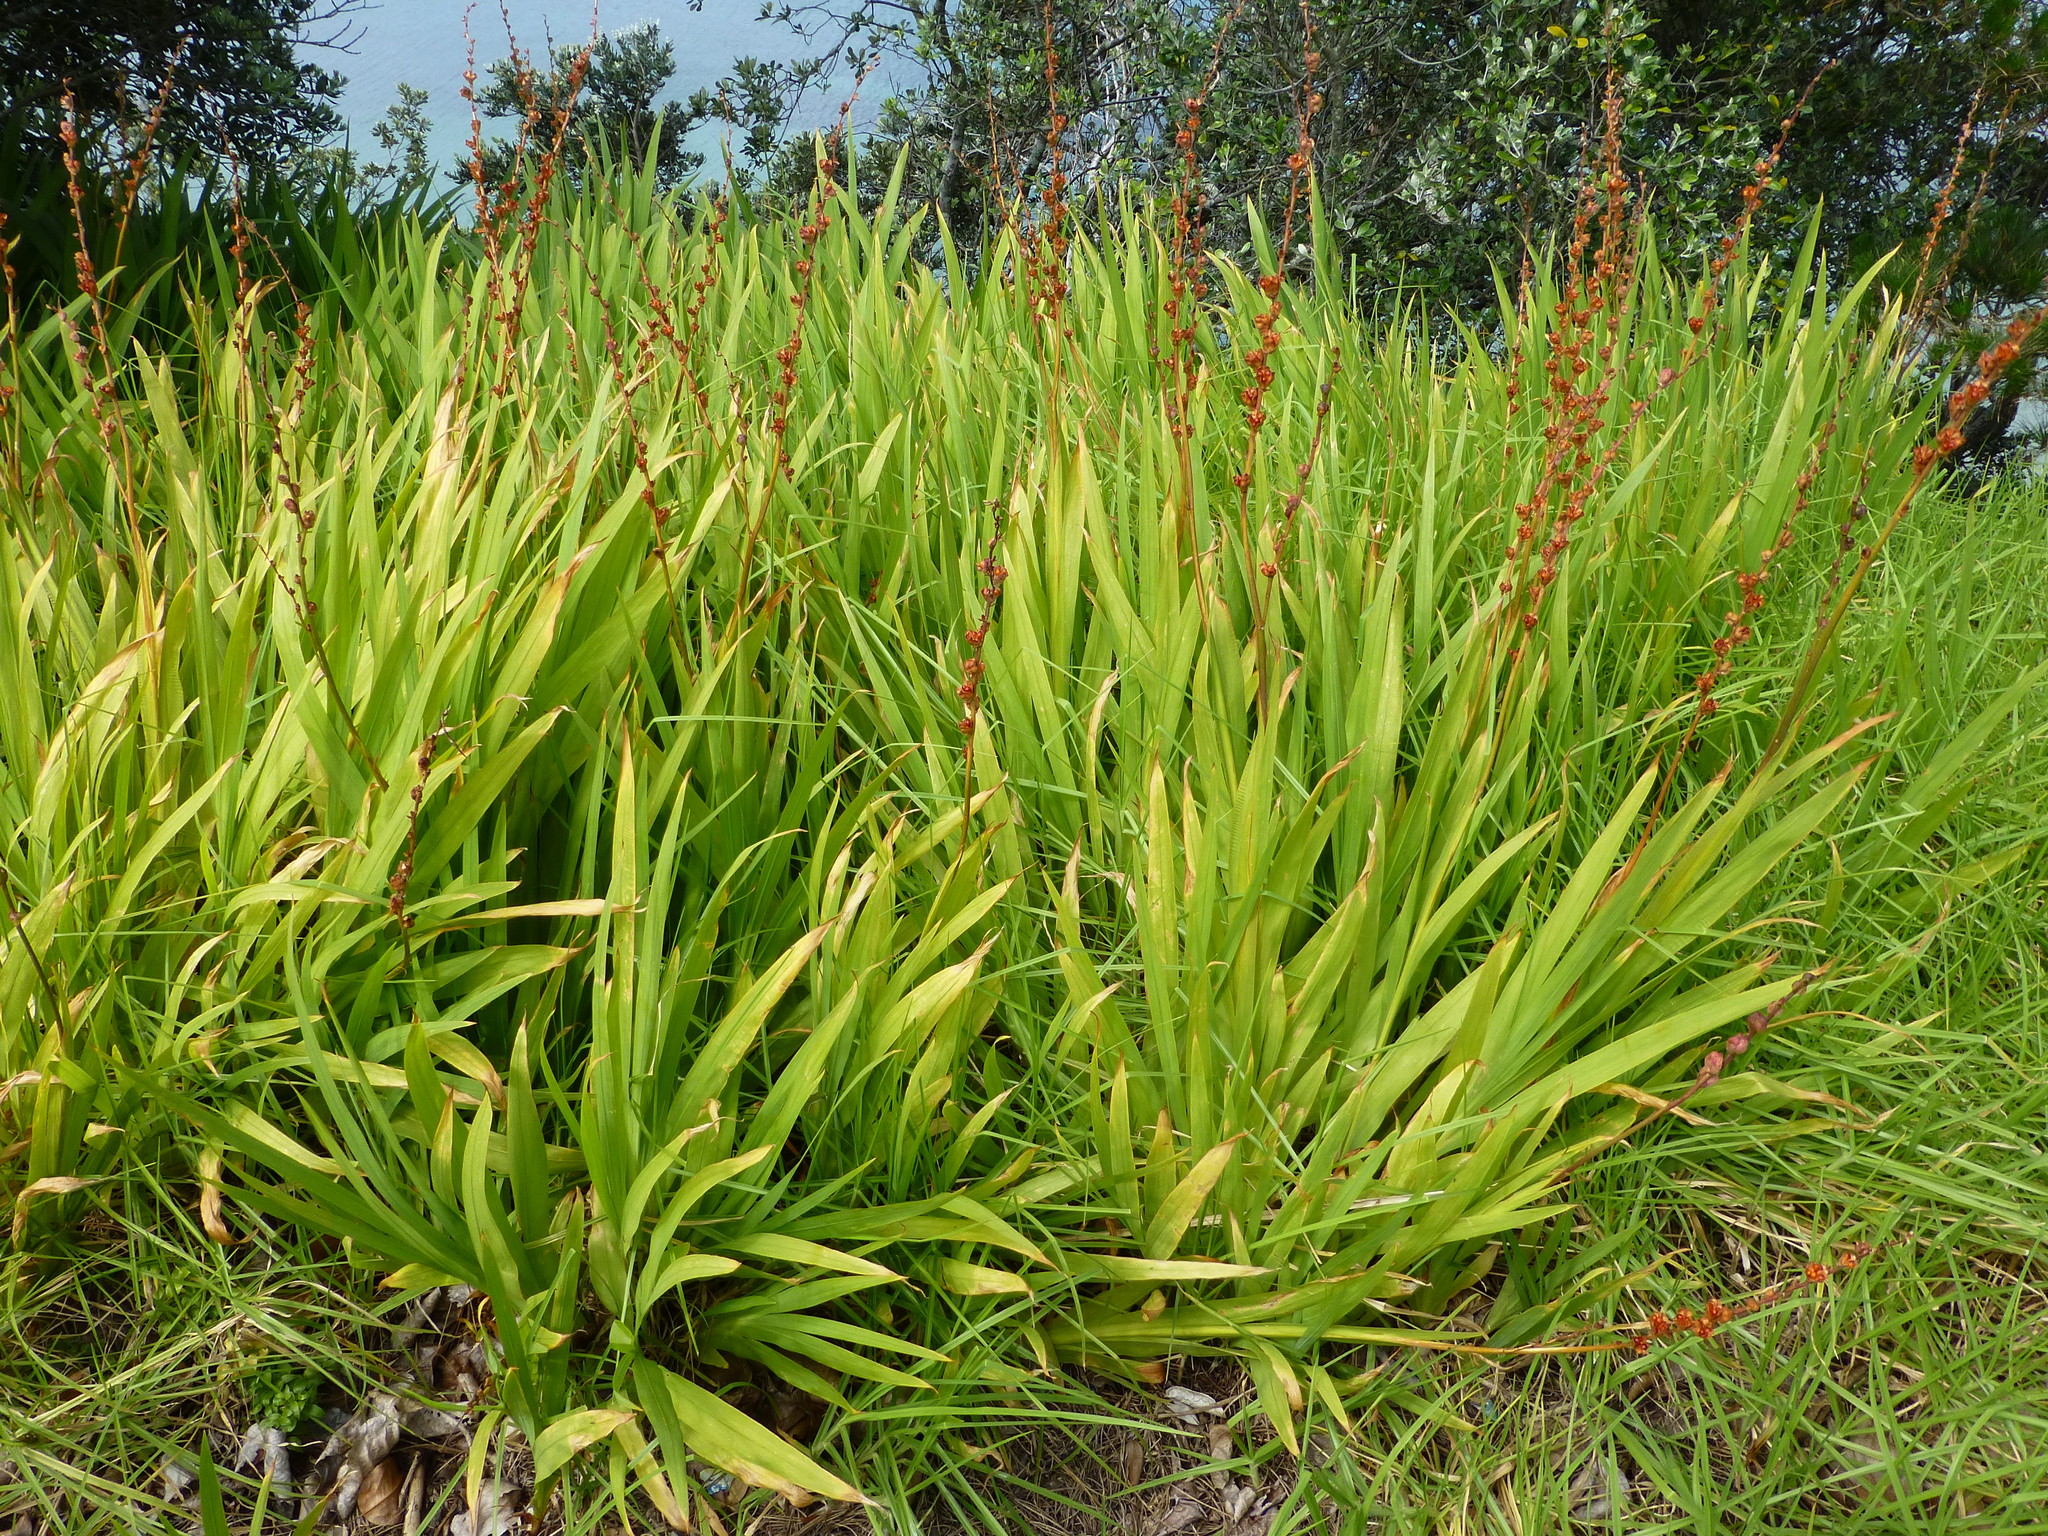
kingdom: Plantae
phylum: Tracheophyta
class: Liliopsida
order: Asparagales
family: Iridaceae
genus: Chasmanthe
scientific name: Chasmanthe floribunda
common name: African cornflag
